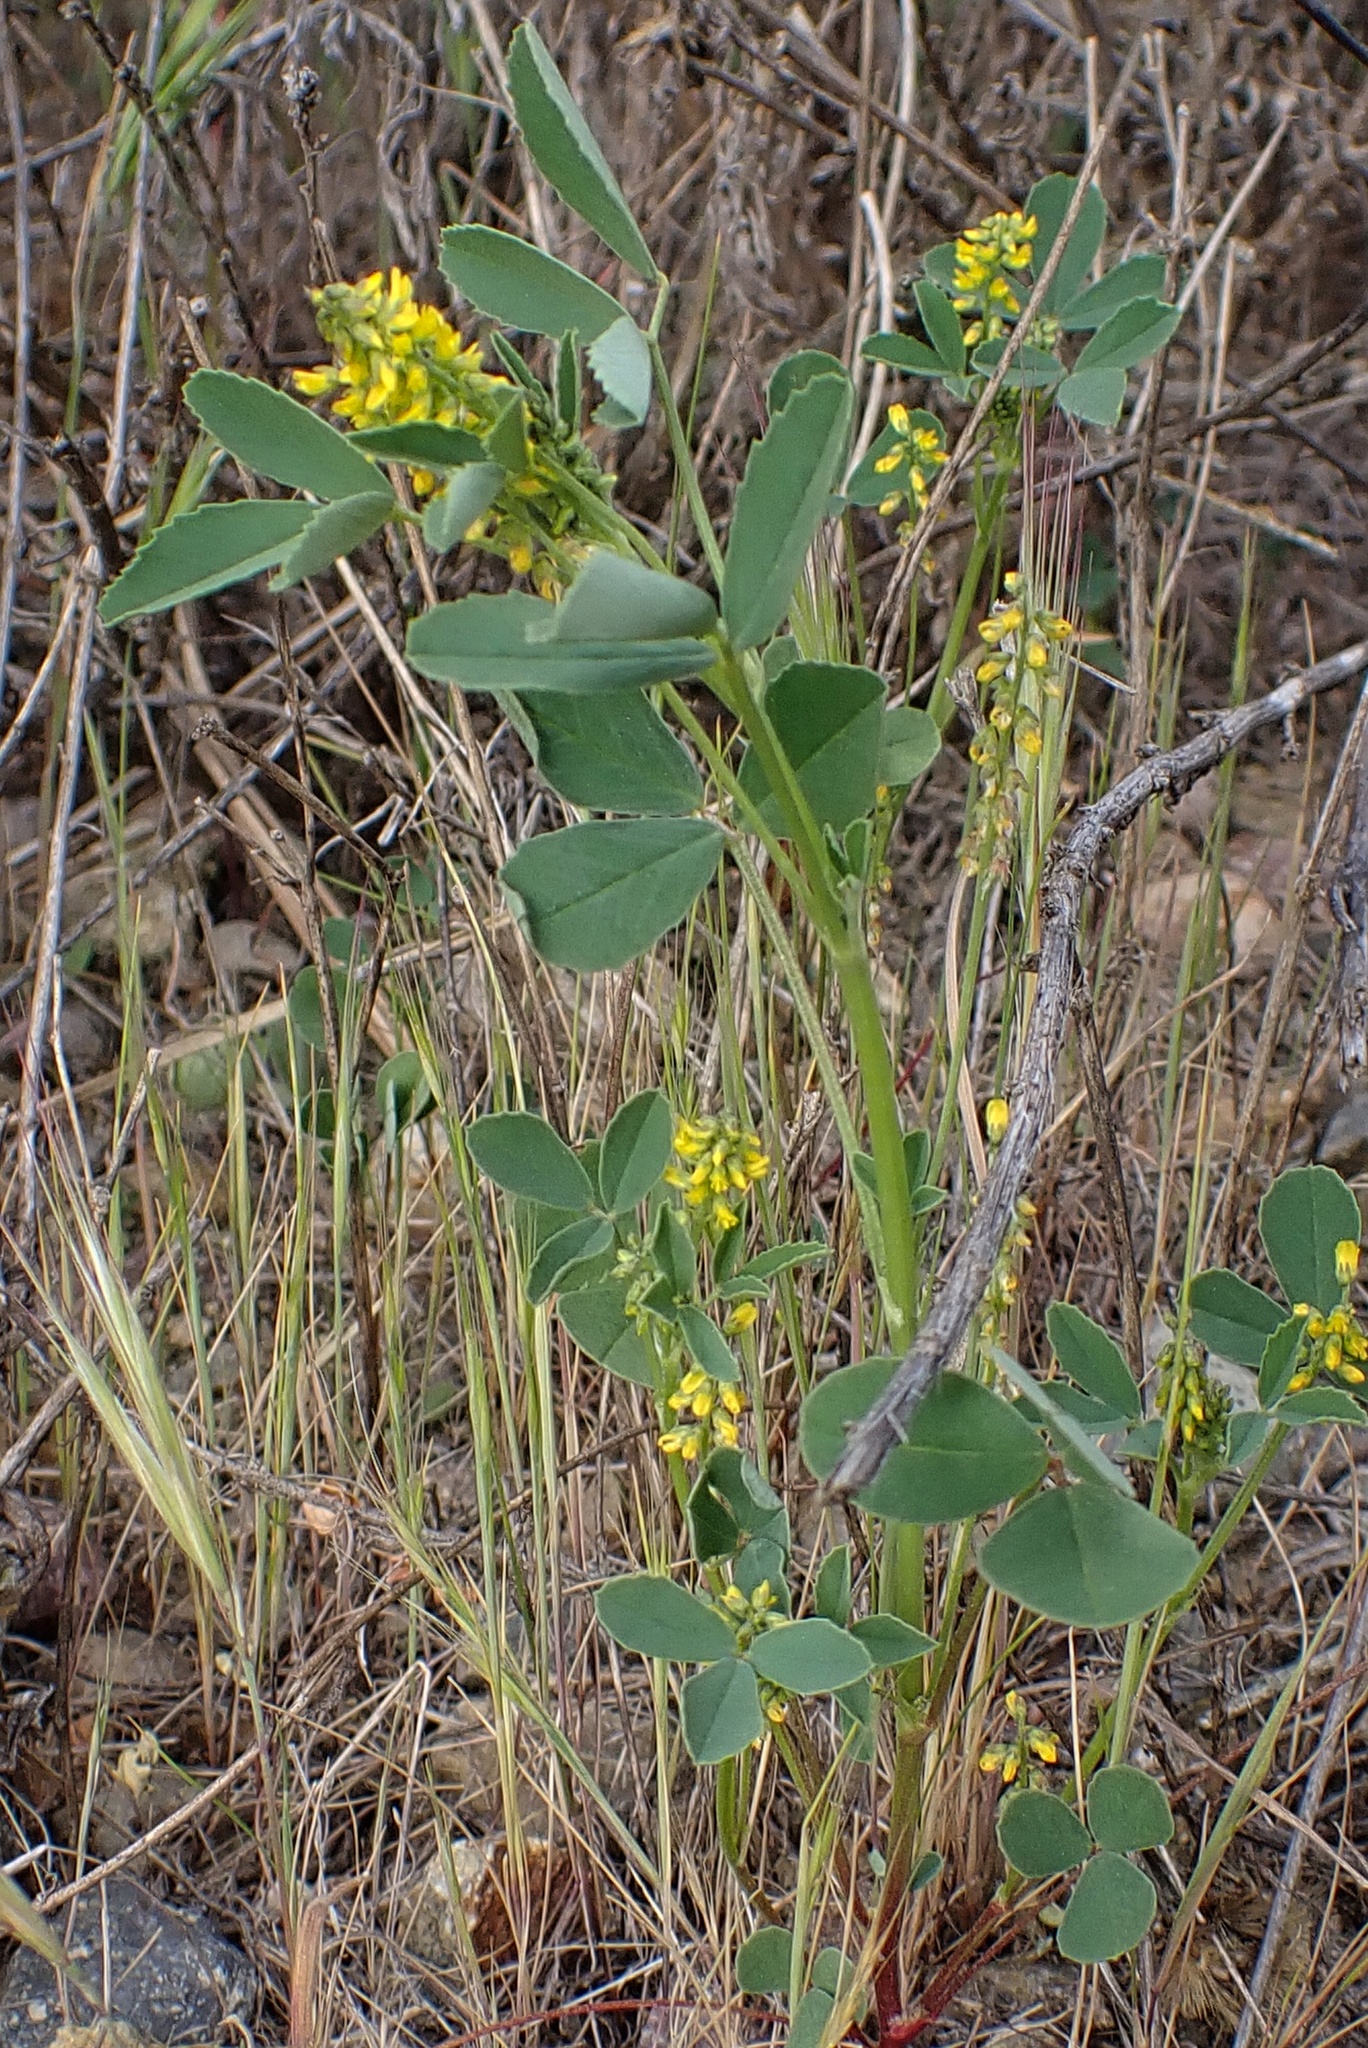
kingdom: Plantae
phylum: Tracheophyta
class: Magnoliopsida
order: Fabales
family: Fabaceae
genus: Melilotus
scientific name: Melilotus indicus
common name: Small melilot
